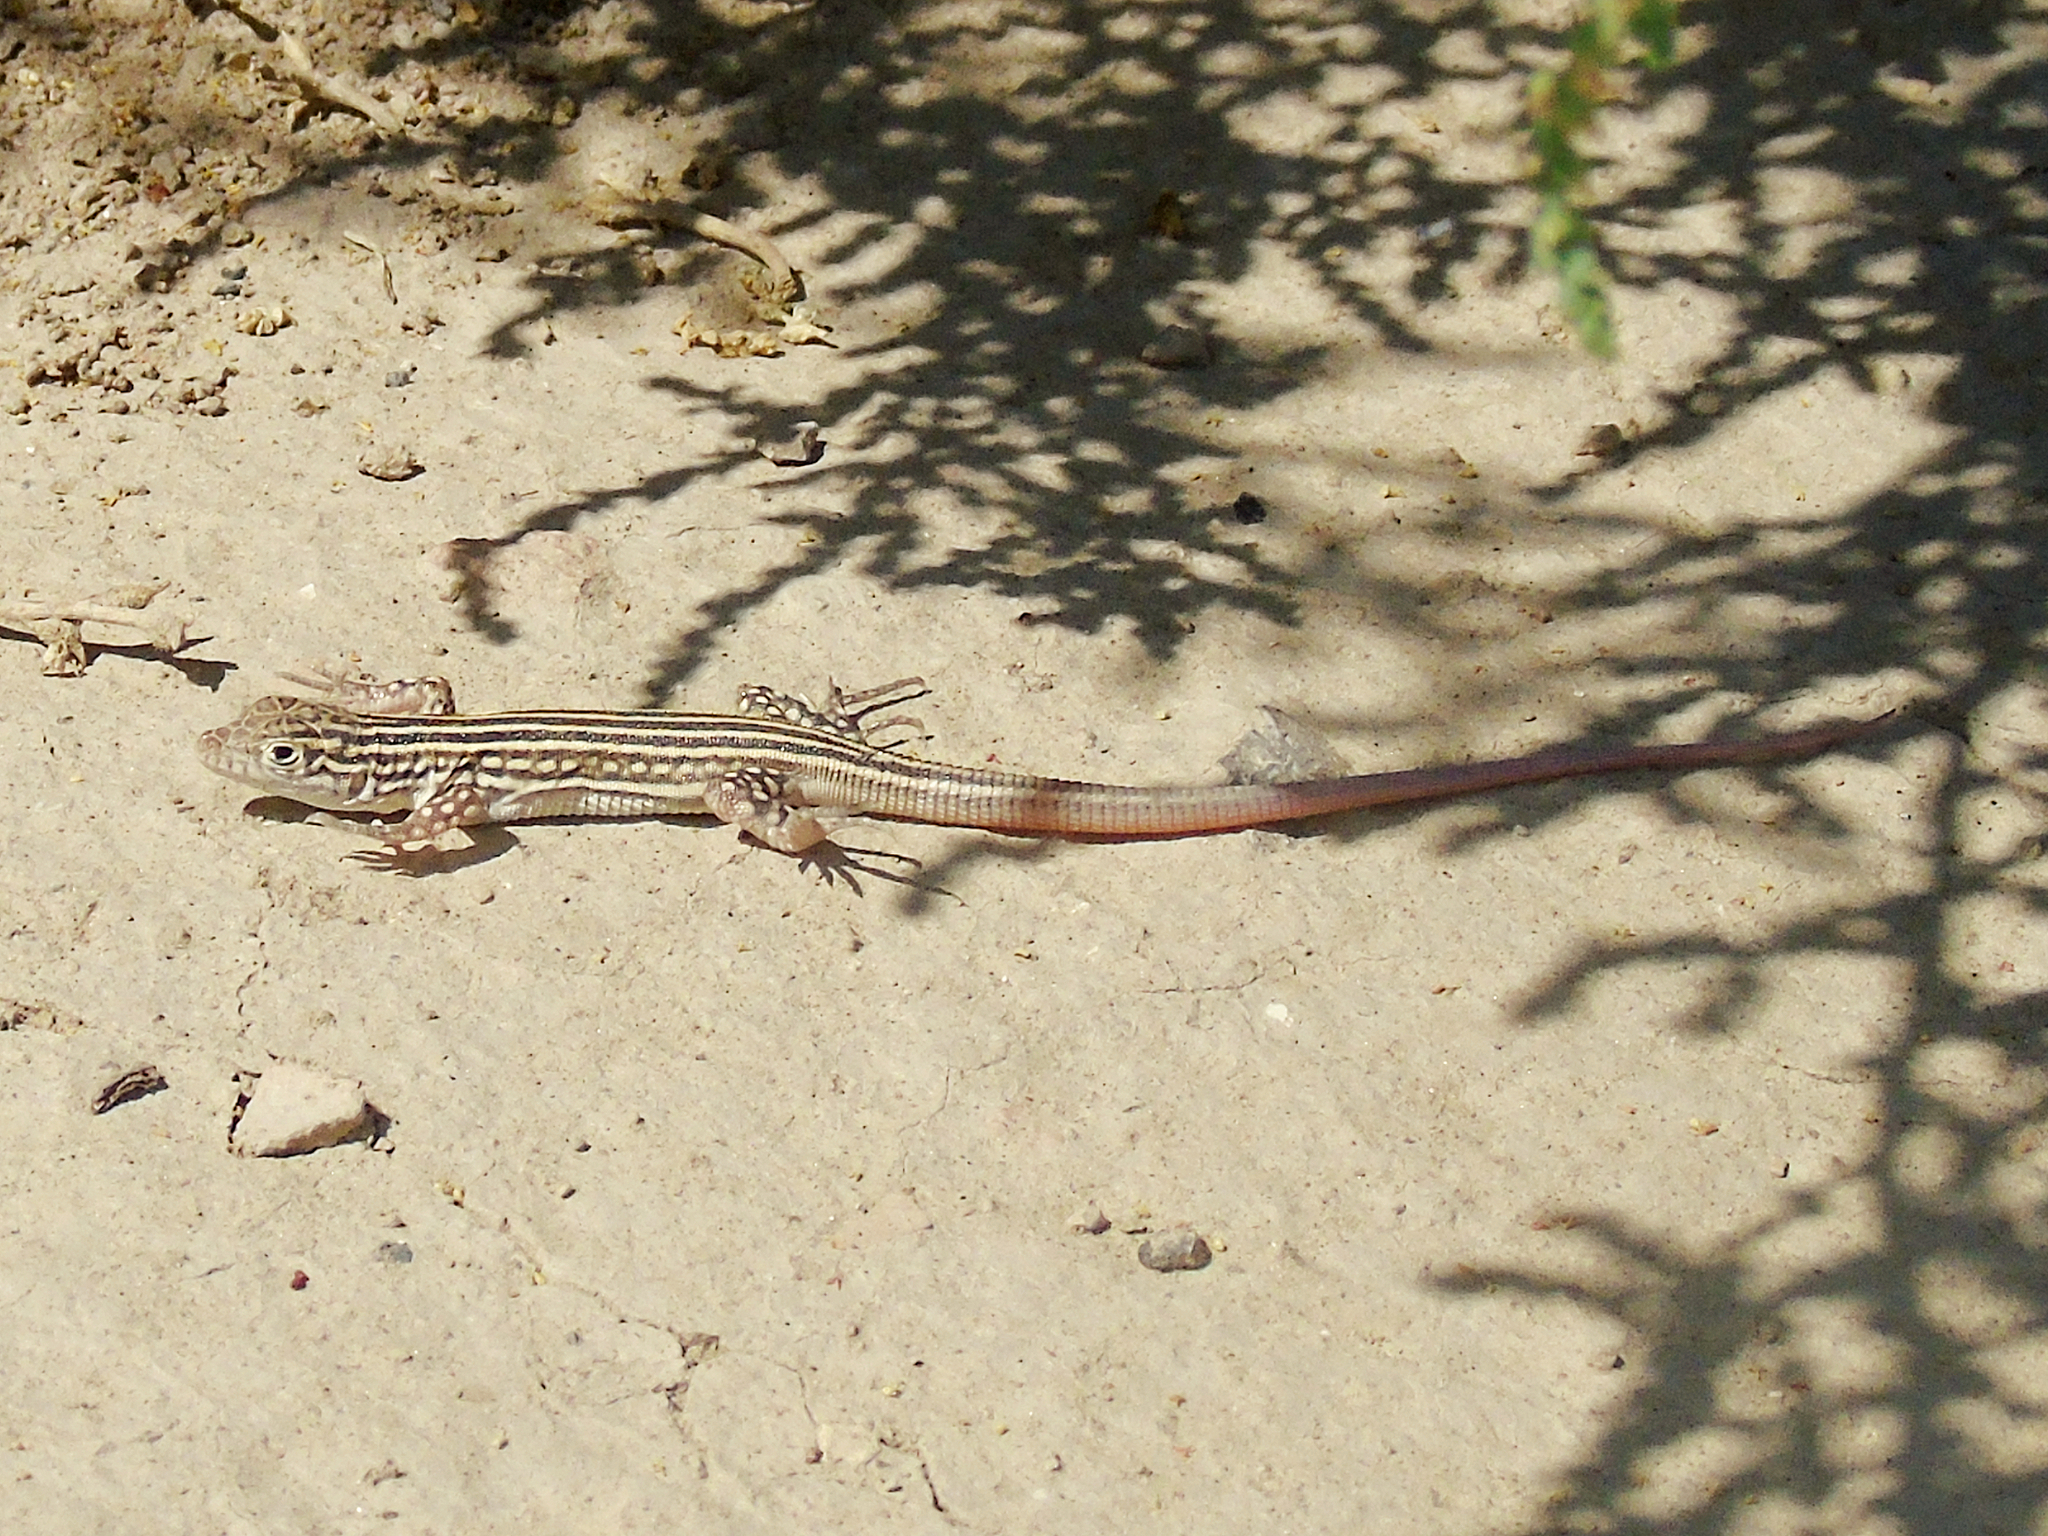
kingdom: Animalia
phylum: Chordata
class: Squamata
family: Lacertidae
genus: Eremias
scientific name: Eremias velox
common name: Central asian racerunner
